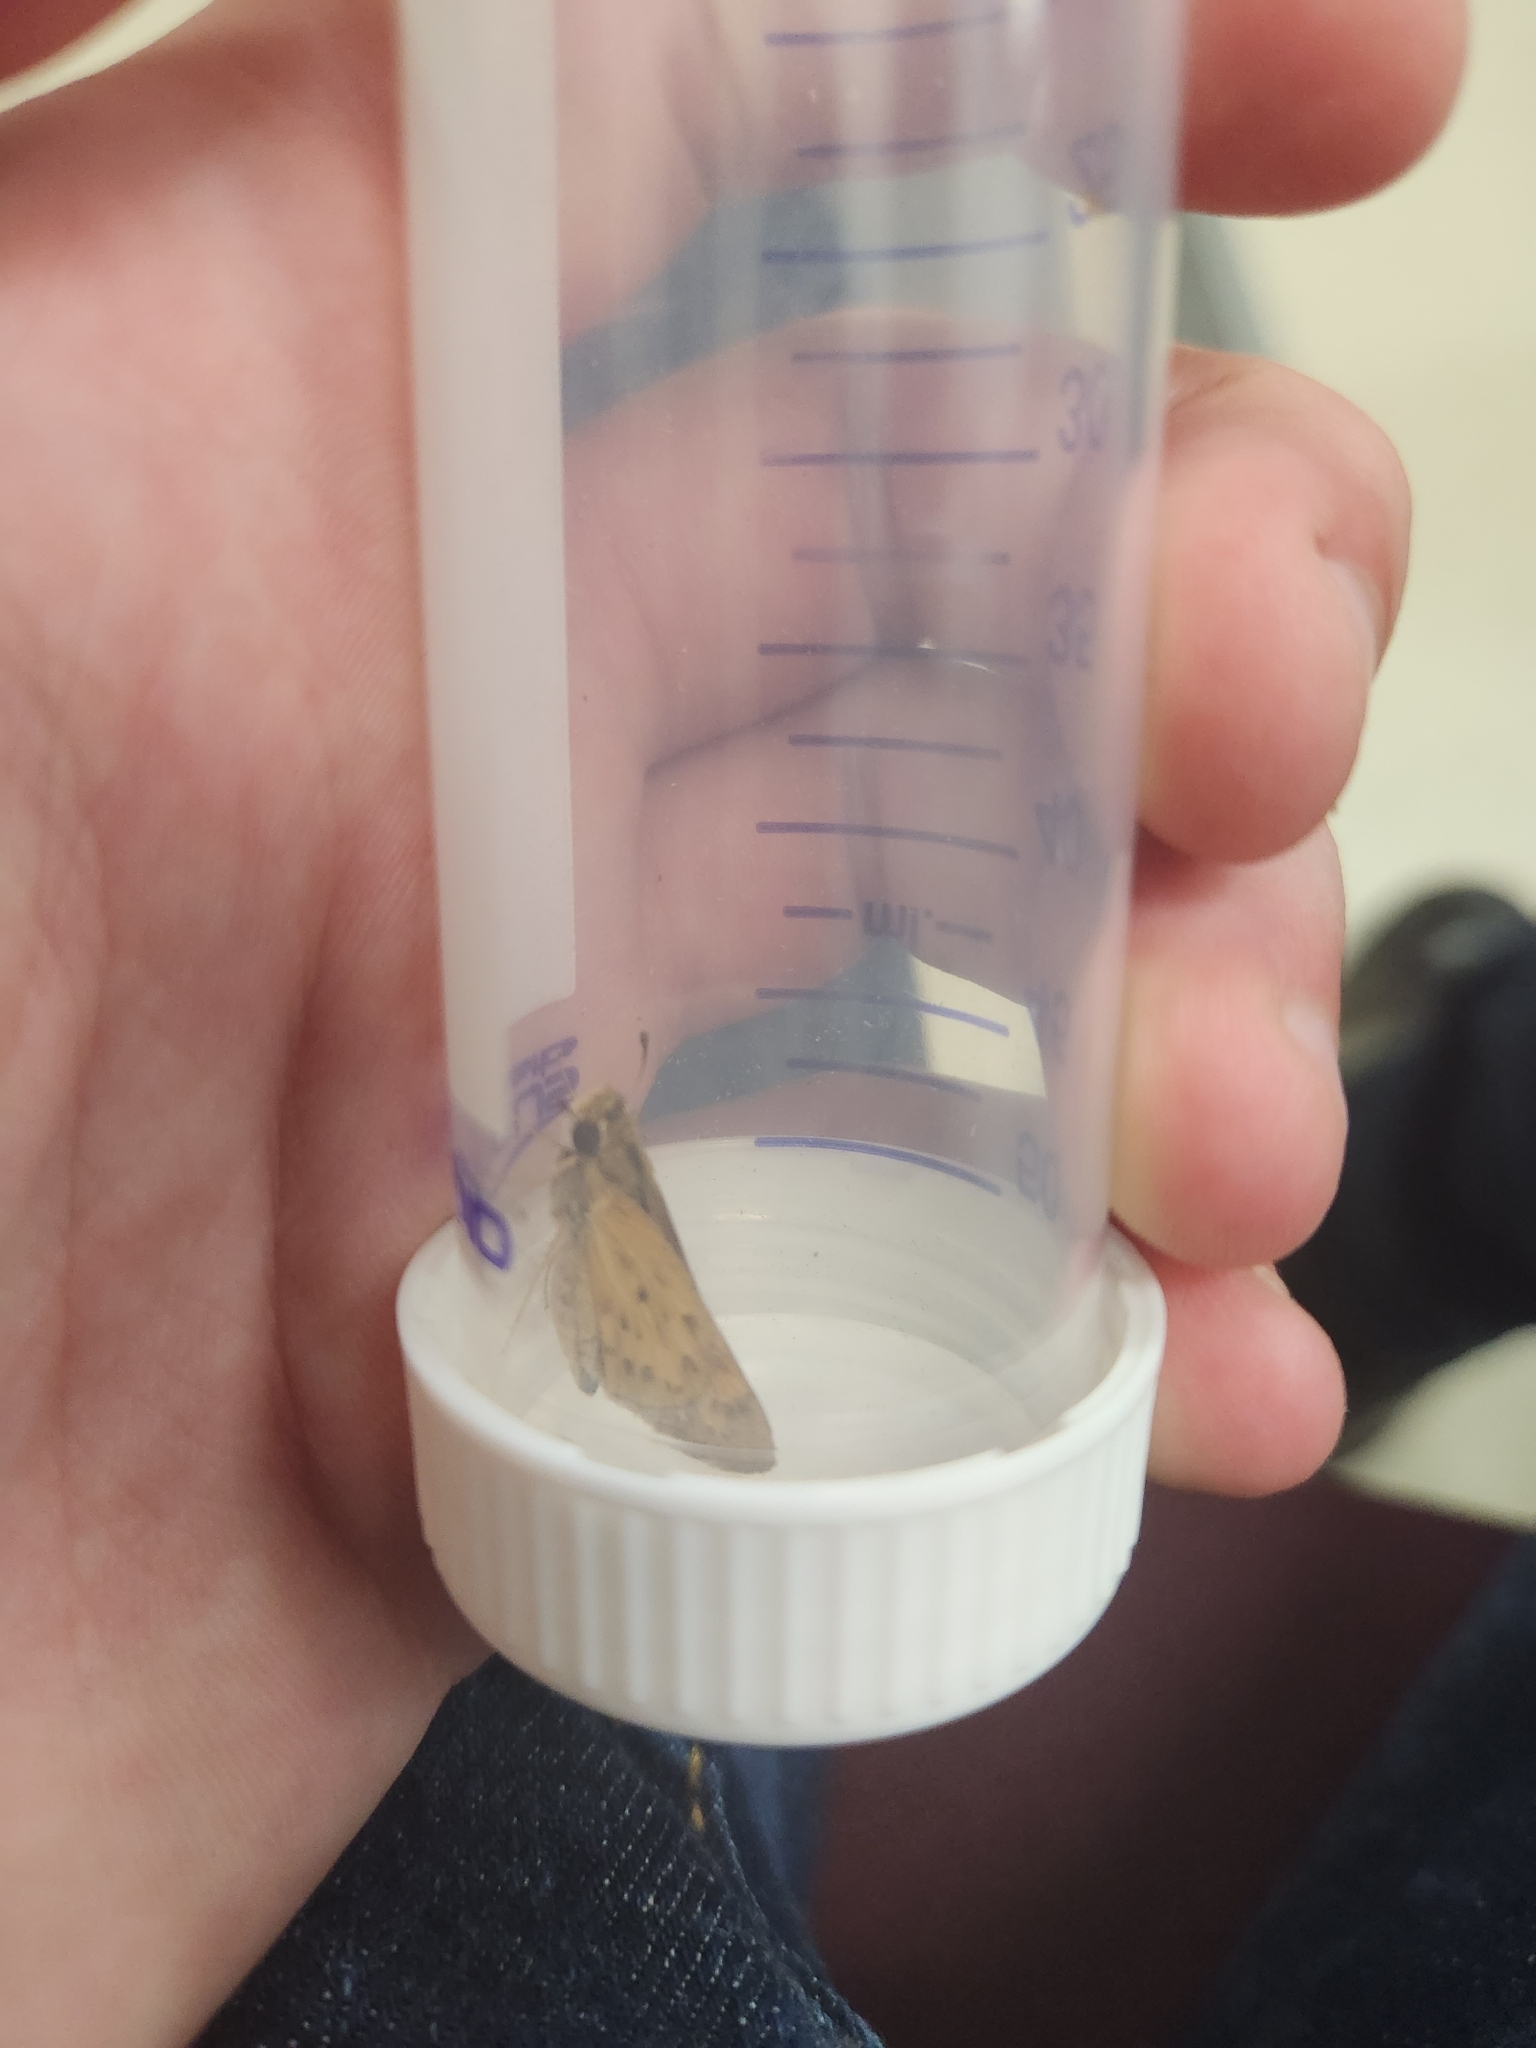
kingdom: Animalia
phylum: Arthropoda
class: Insecta
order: Lepidoptera
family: Hesperiidae
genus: Hylephila
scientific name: Hylephila phyleus
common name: Fiery skipper
